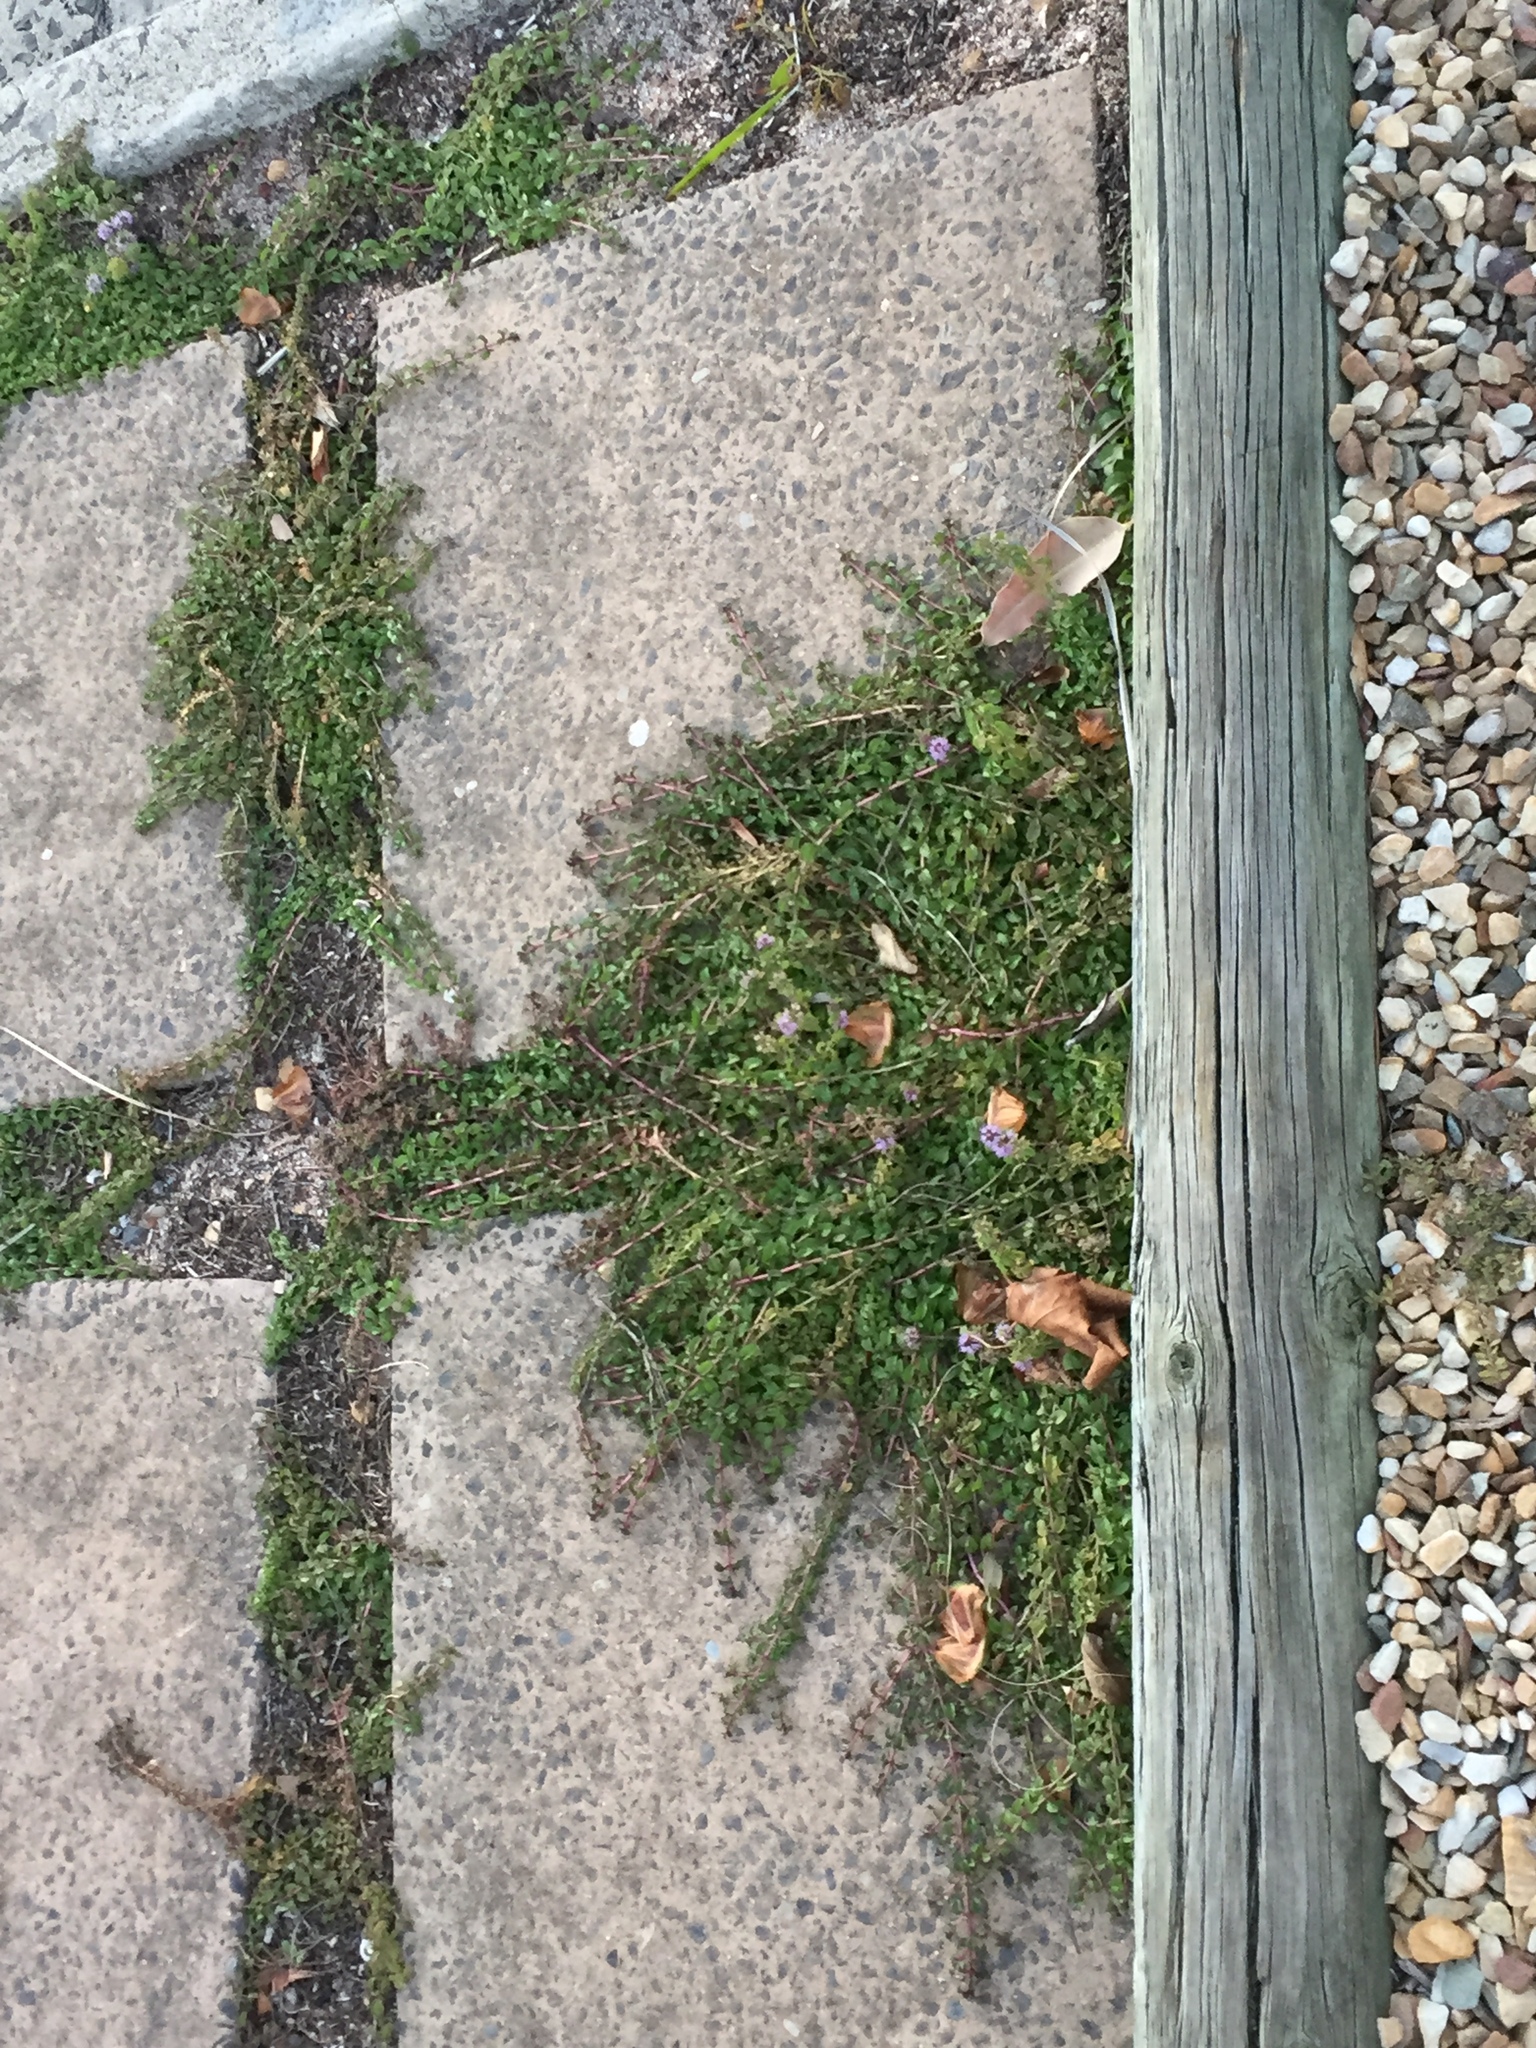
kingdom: Plantae
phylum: Tracheophyta
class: Magnoliopsida
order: Lamiales
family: Lamiaceae
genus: Mentha
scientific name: Mentha pulegium
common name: Pennyroyal
